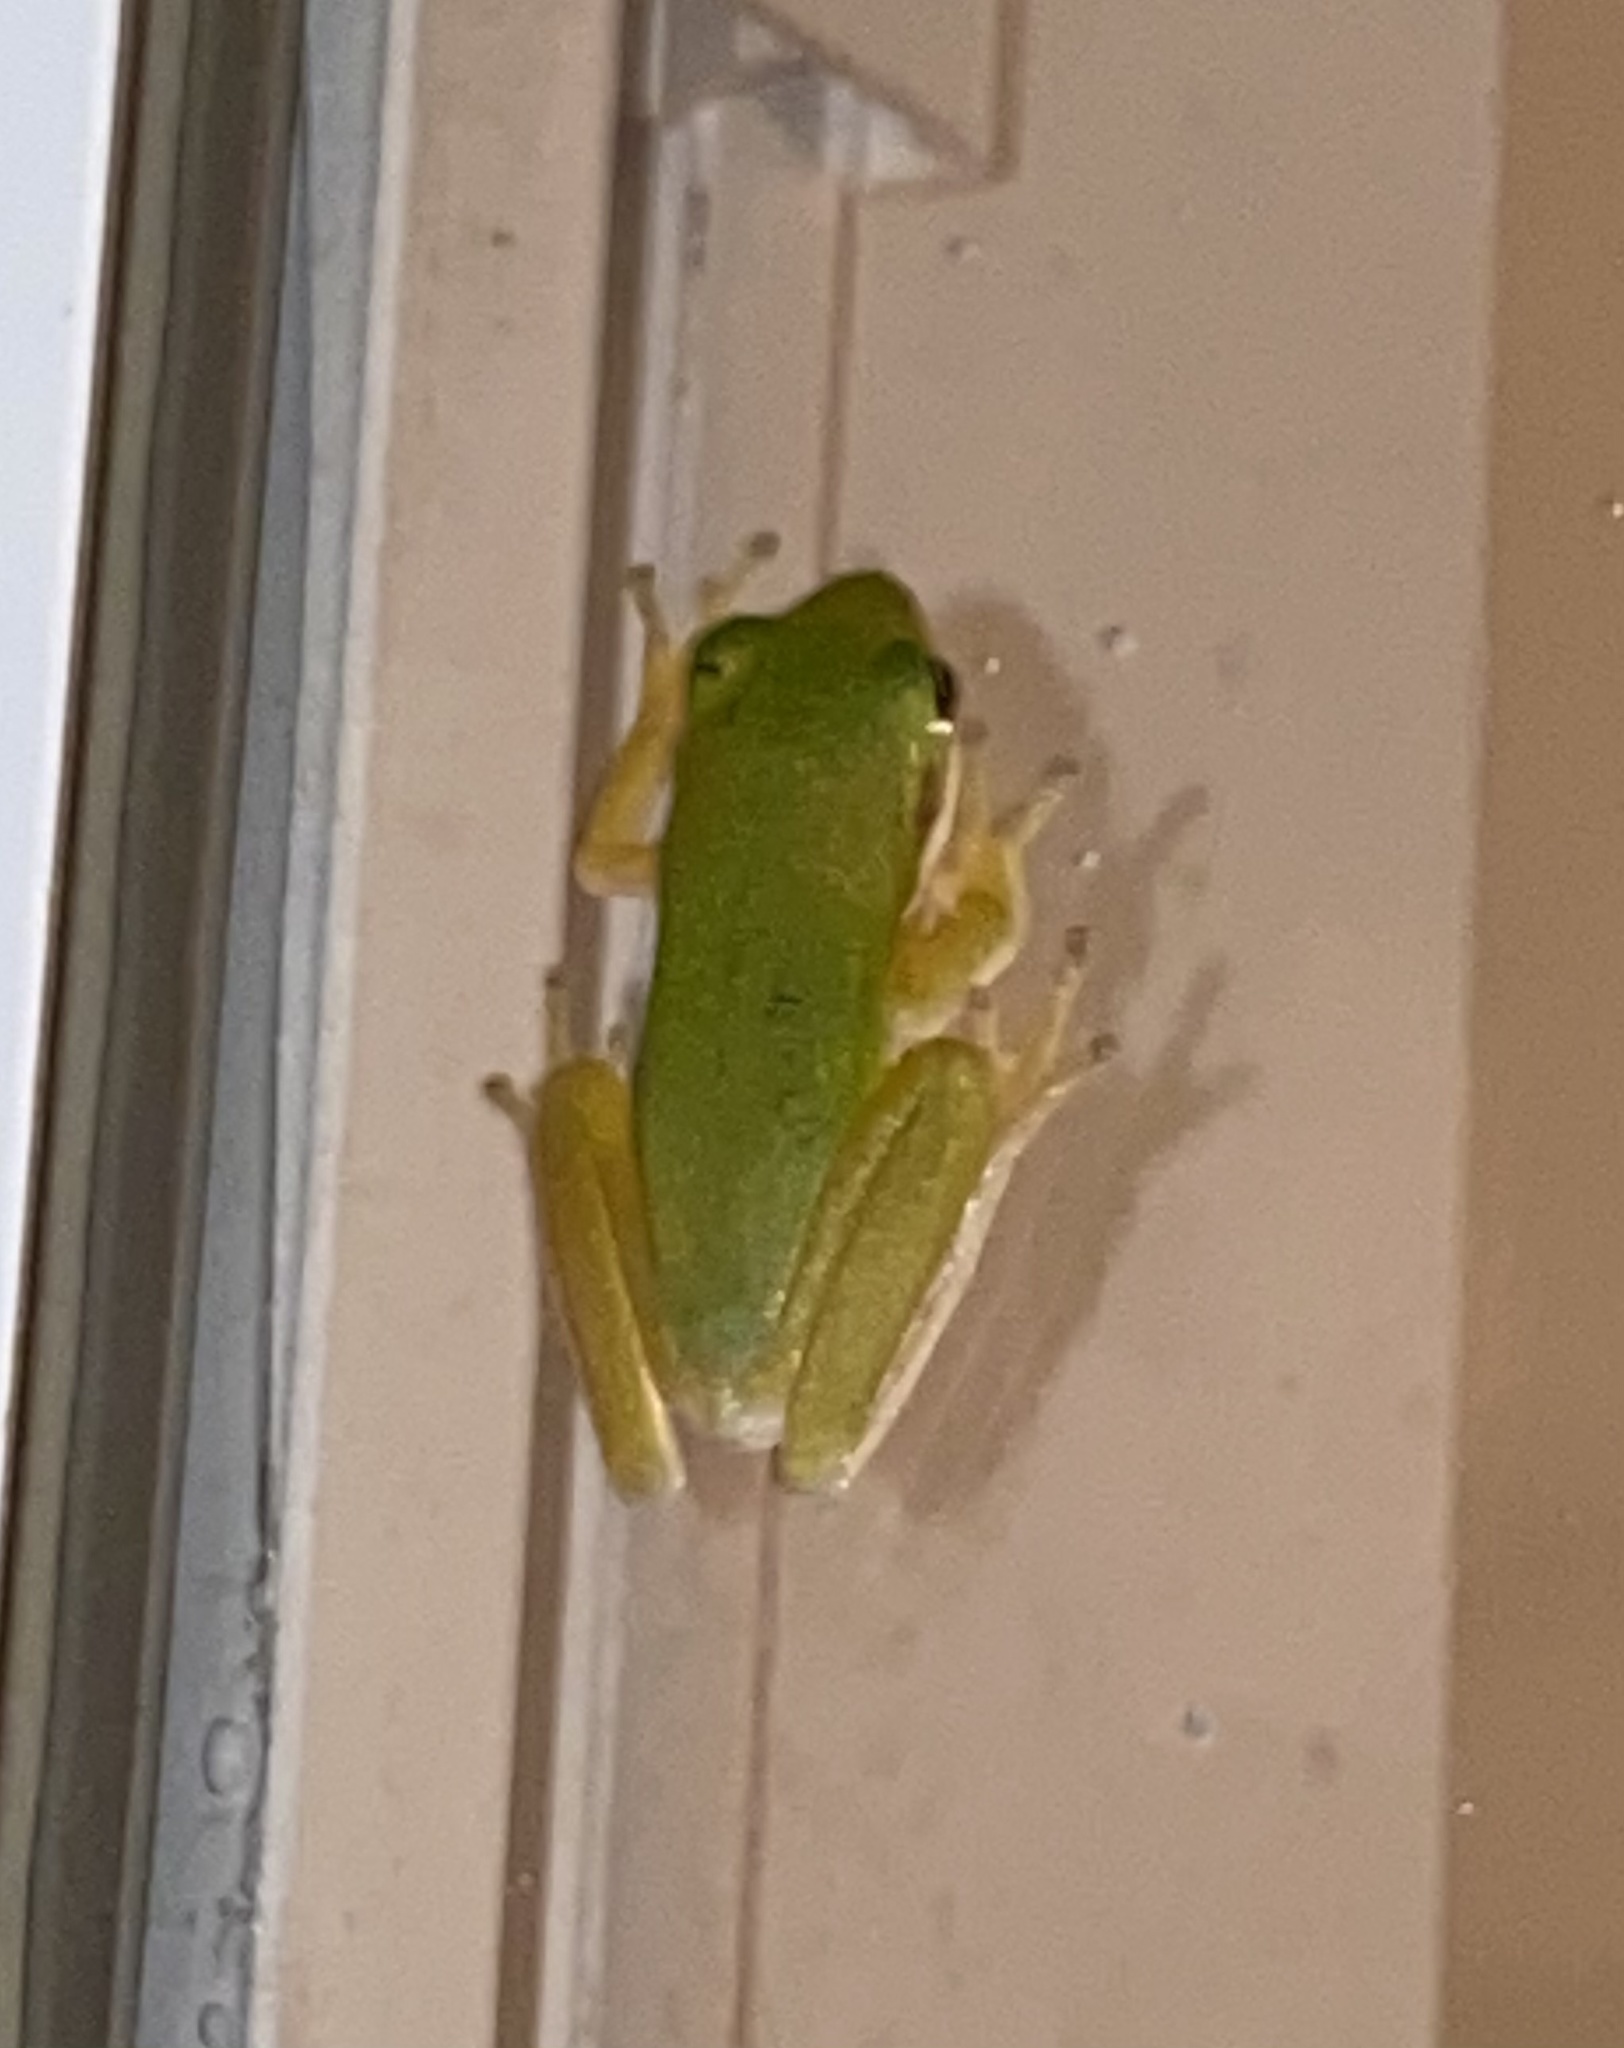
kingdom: Animalia
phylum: Chordata
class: Amphibia
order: Anura
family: Hylidae
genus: Dryophytes
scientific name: Dryophytes cinereus
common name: Green treefrog
